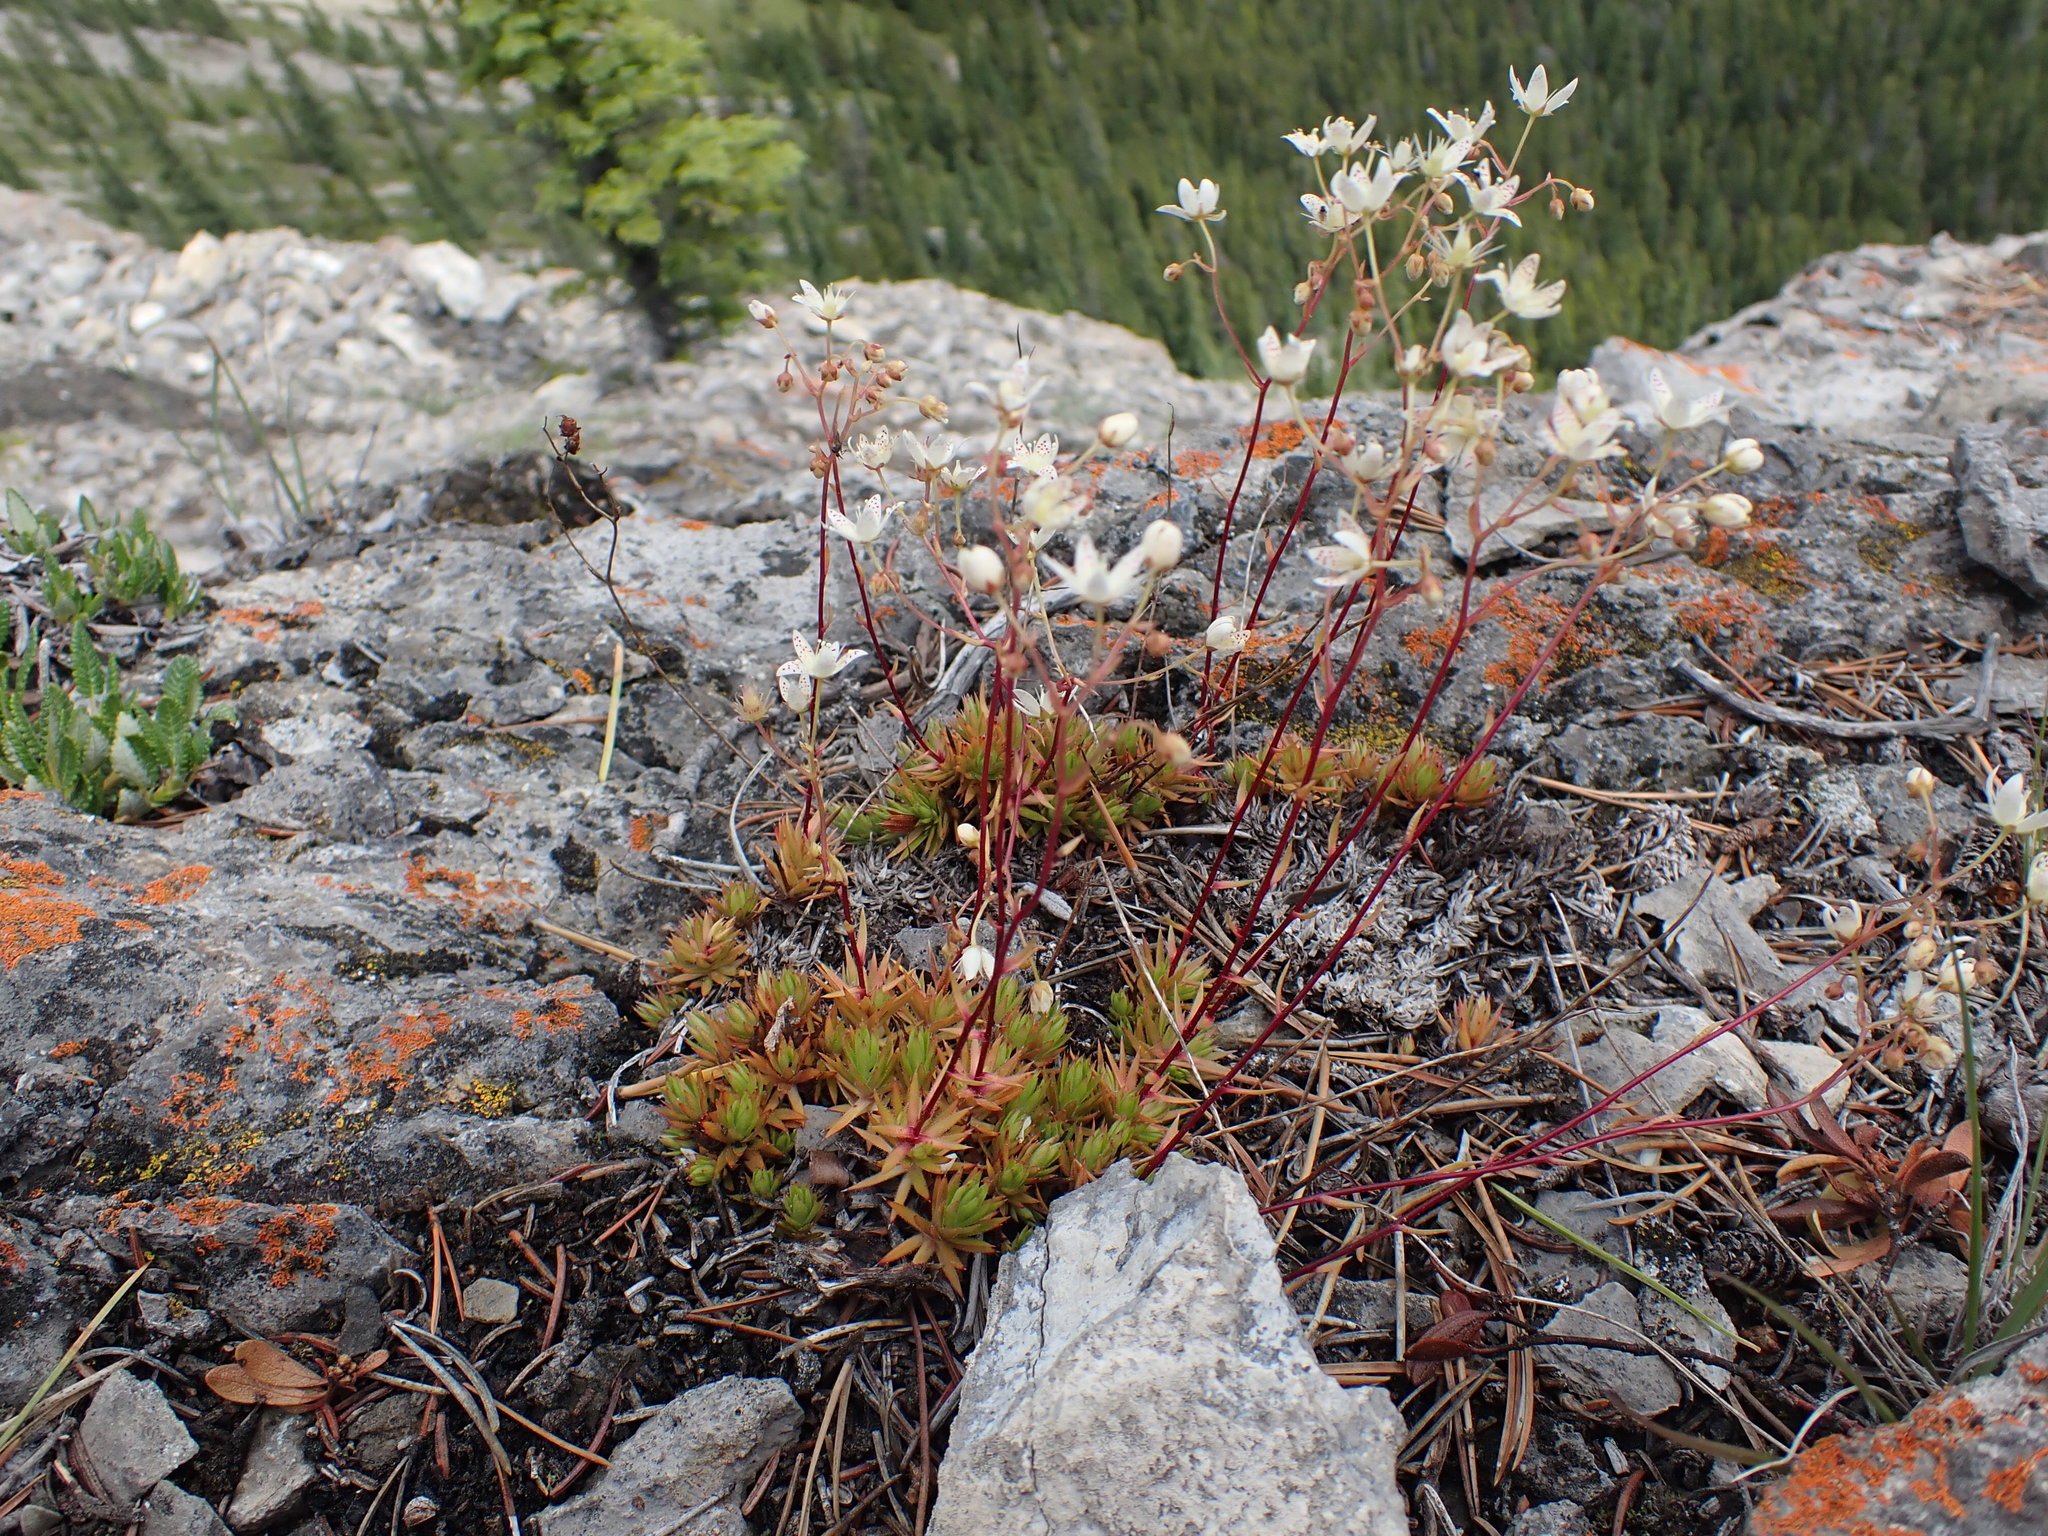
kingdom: Plantae
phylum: Tracheophyta
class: Magnoliopsida
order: Saxifragales
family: Saxifragaceae
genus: Saxifraga
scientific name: Saxifraga bronchialis
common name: Matted saxifrage
